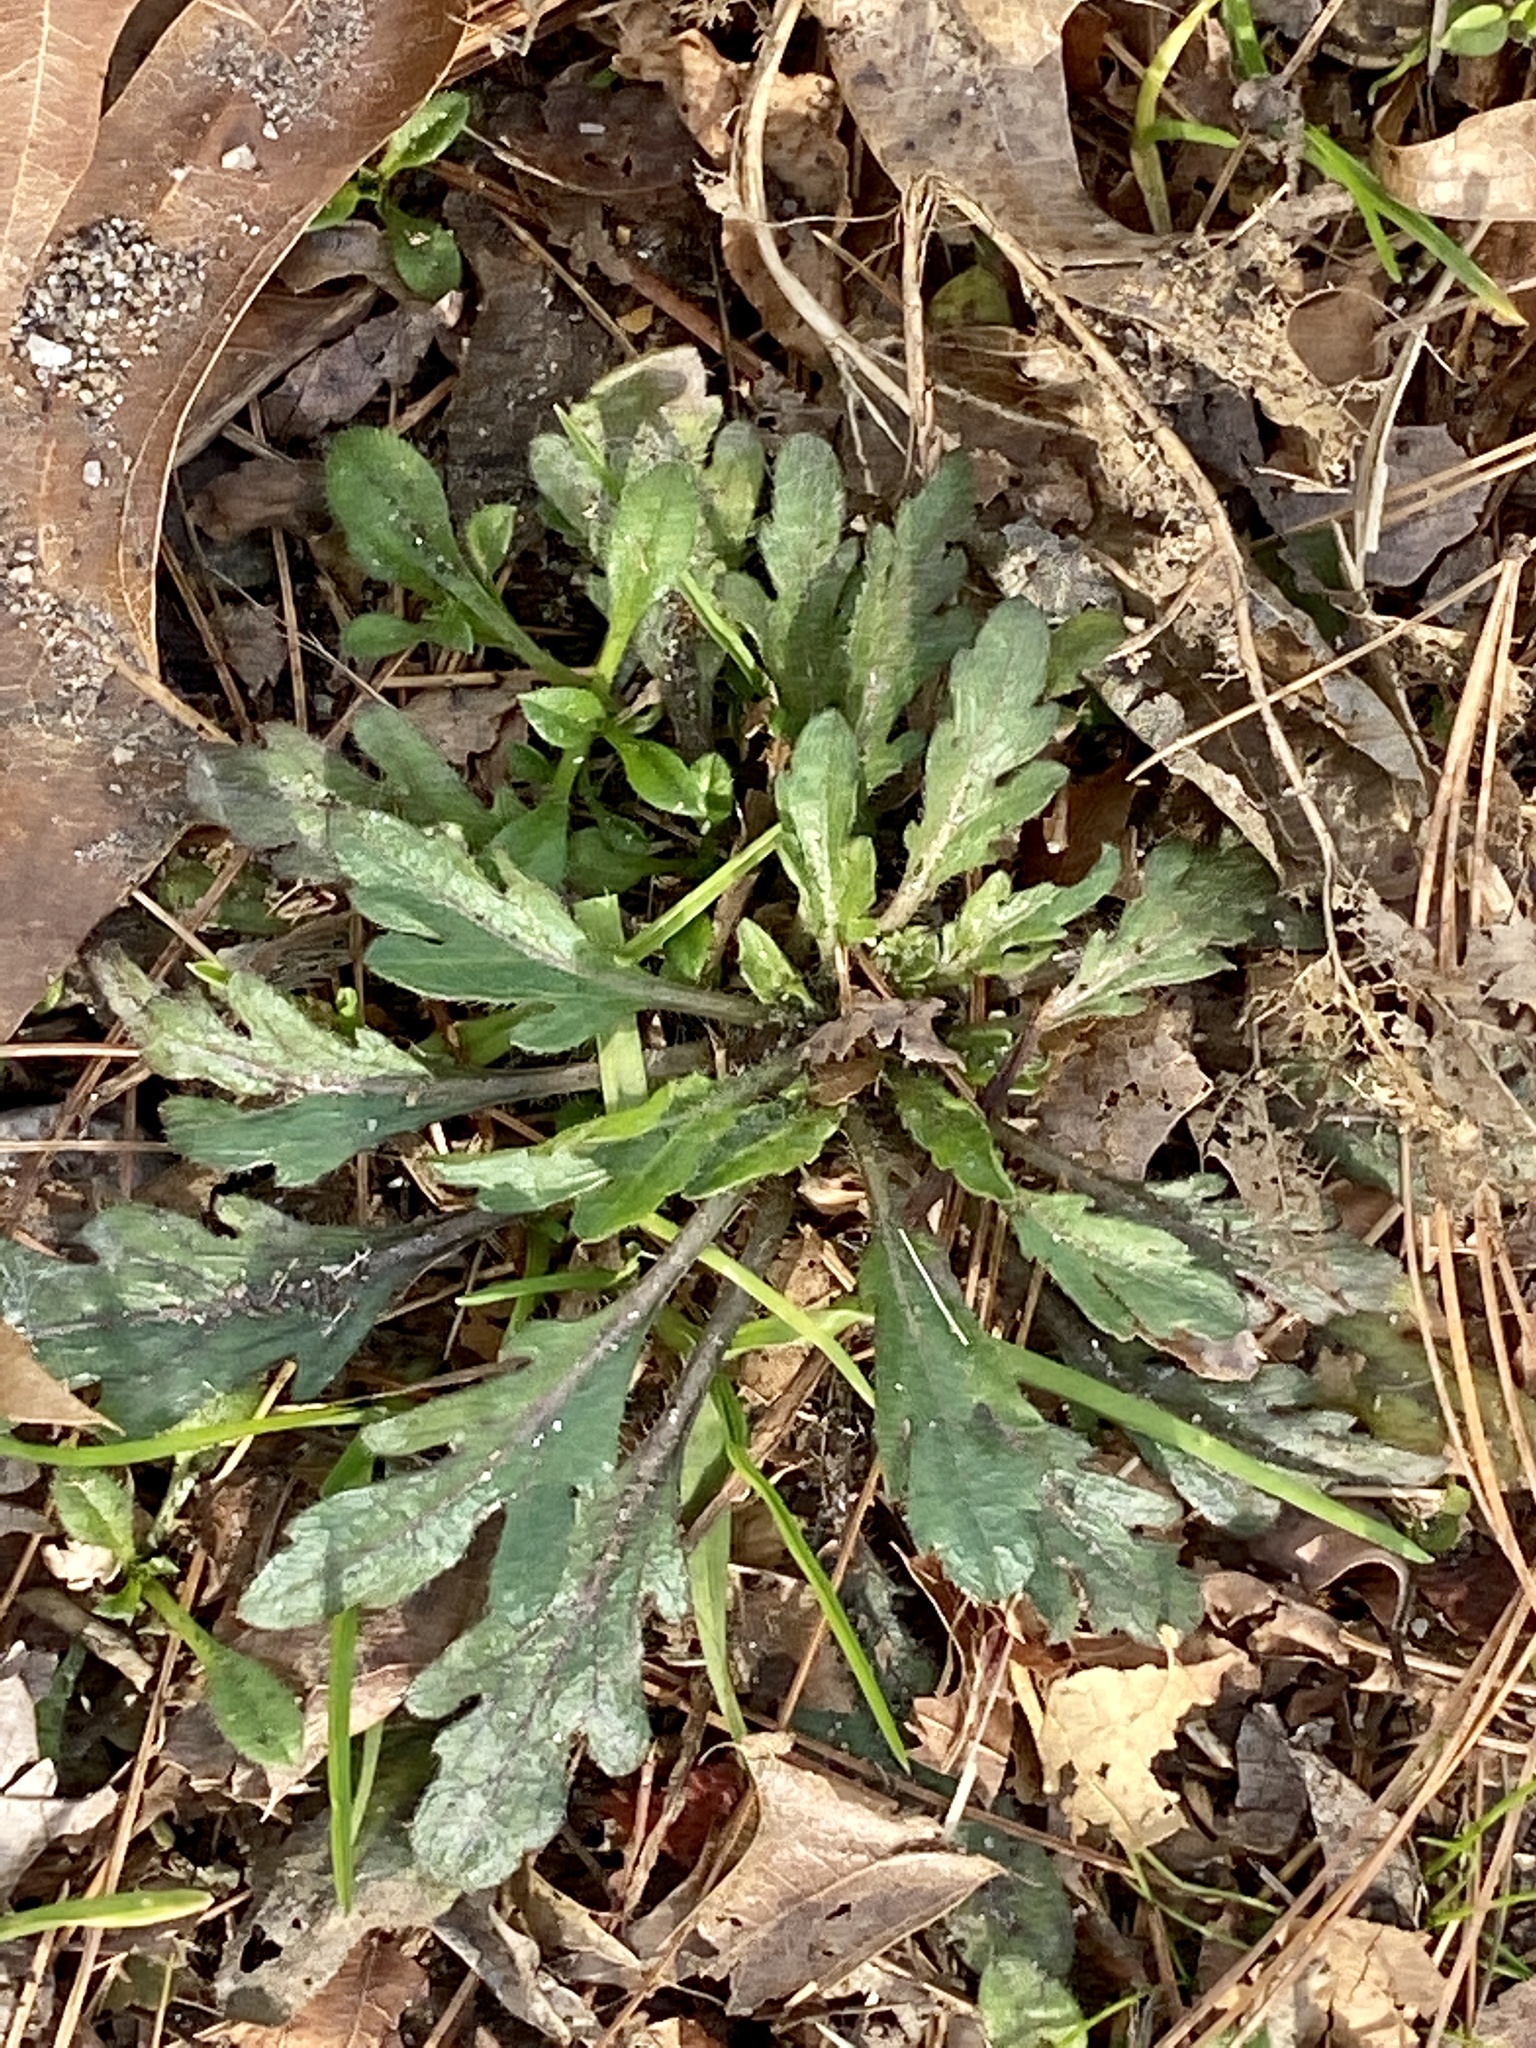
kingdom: Plantae
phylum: Tracheophyta
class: Magnoliopsida
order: Asterales
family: Asteraceae
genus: Erigeron
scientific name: Erigeron canadensis
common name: Canadian fleabane
